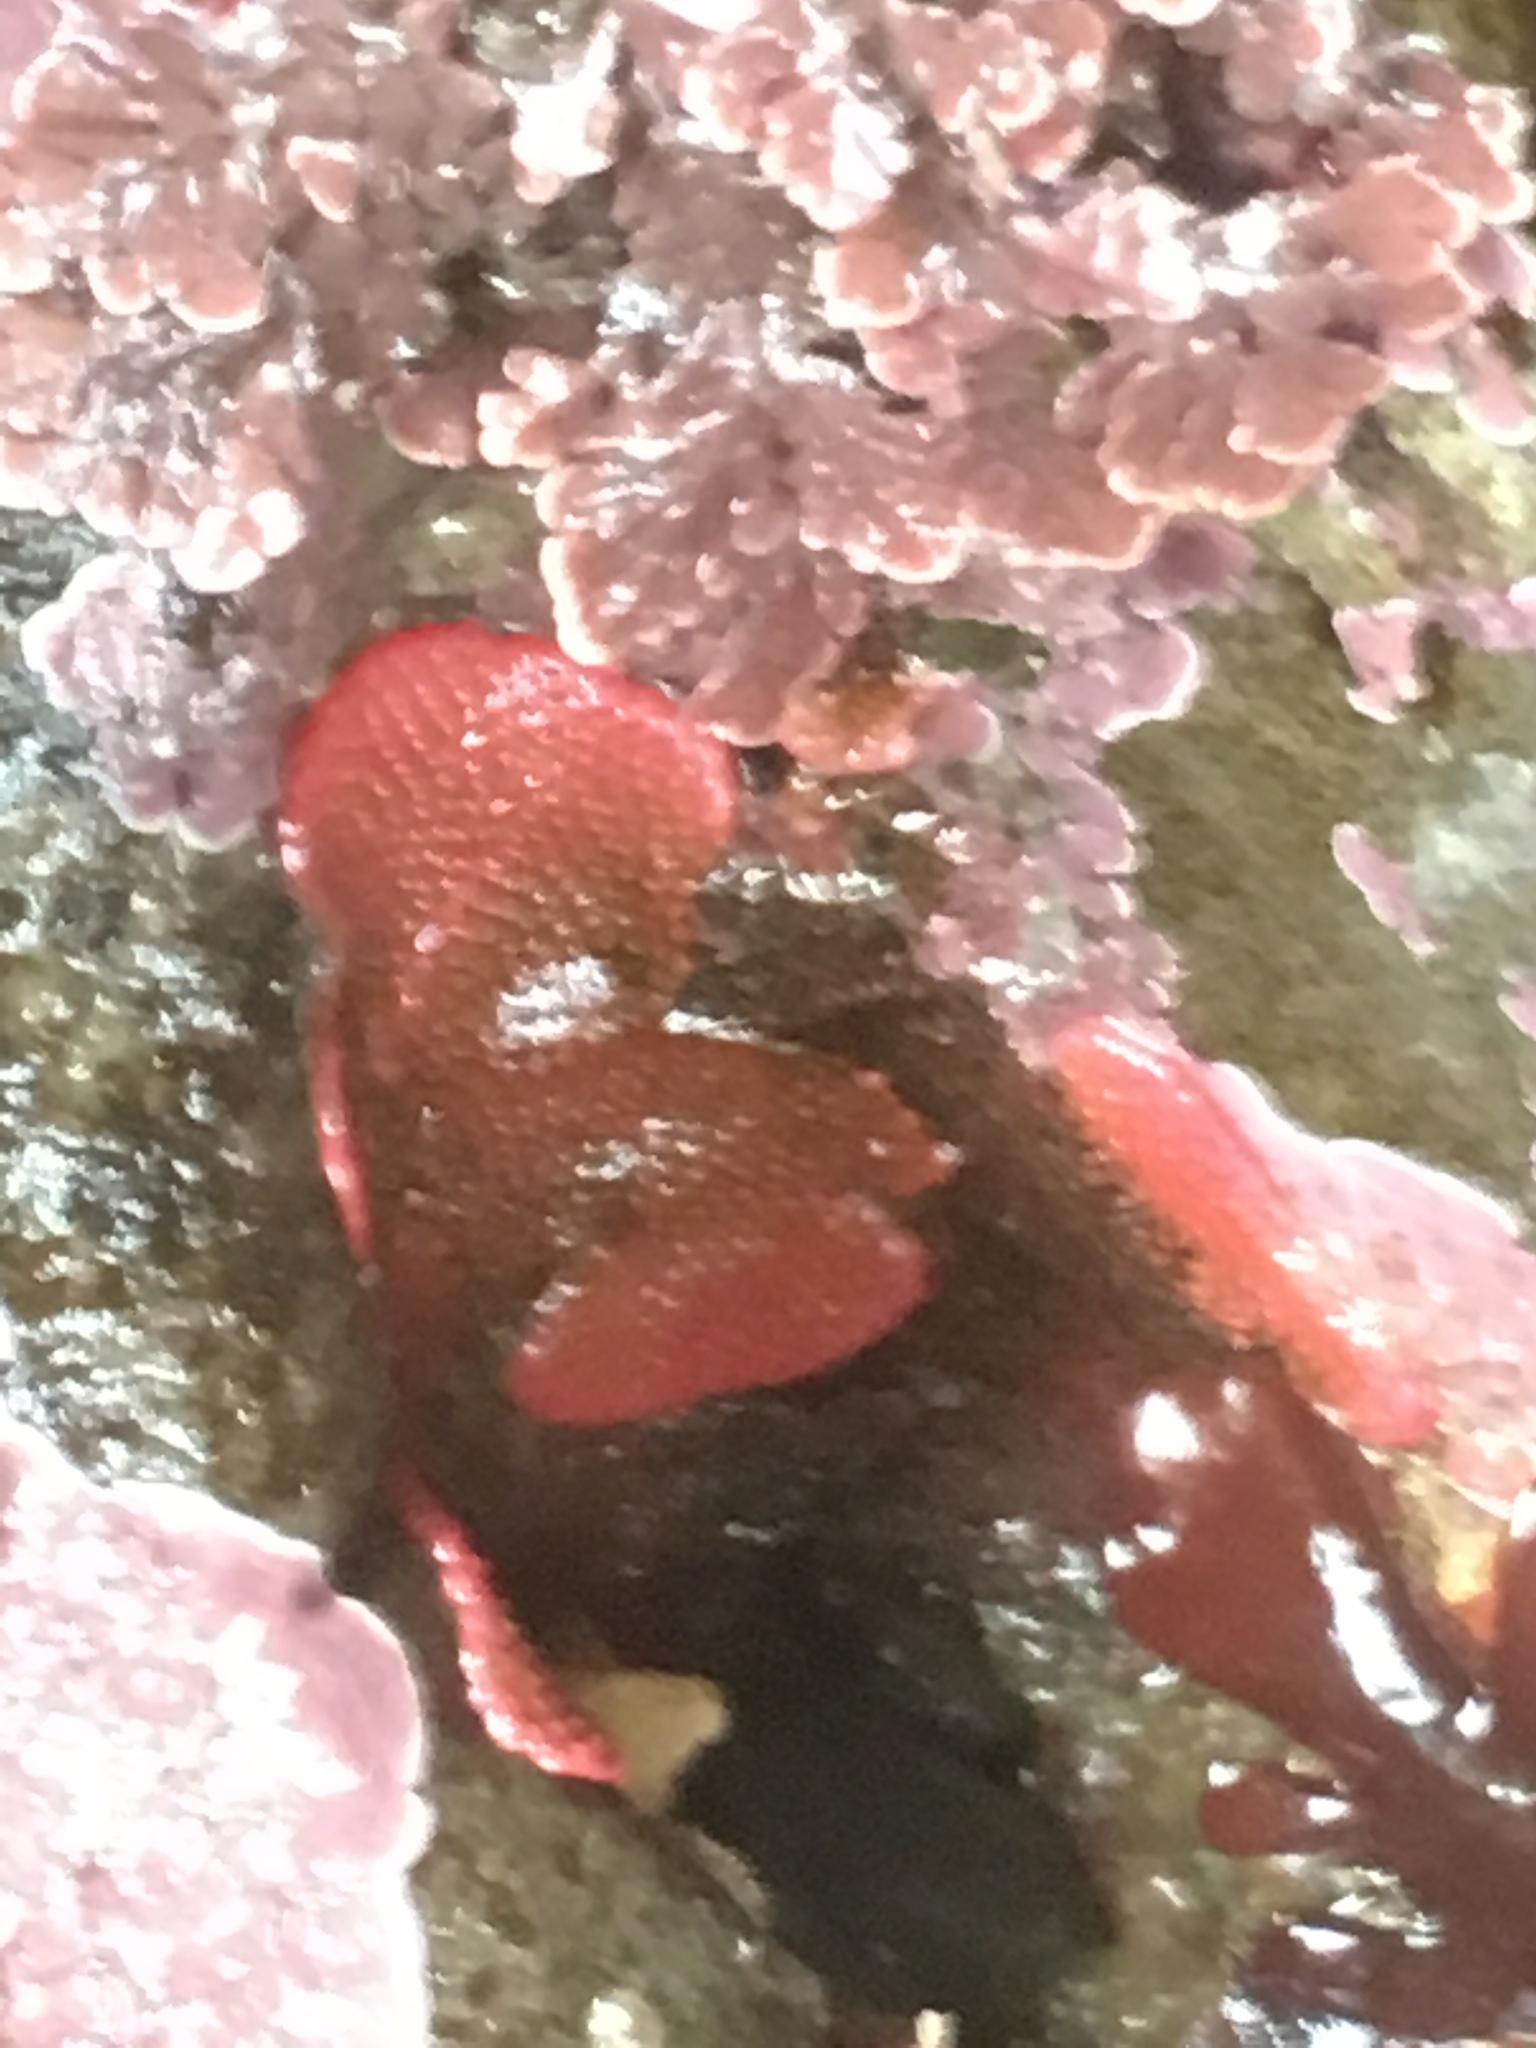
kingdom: Animalia
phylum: Bryozoa
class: Gymnolaemata
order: Cheilostomatida
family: Eurystomellidae
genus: Integripelta
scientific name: Integripelta bilabiata
